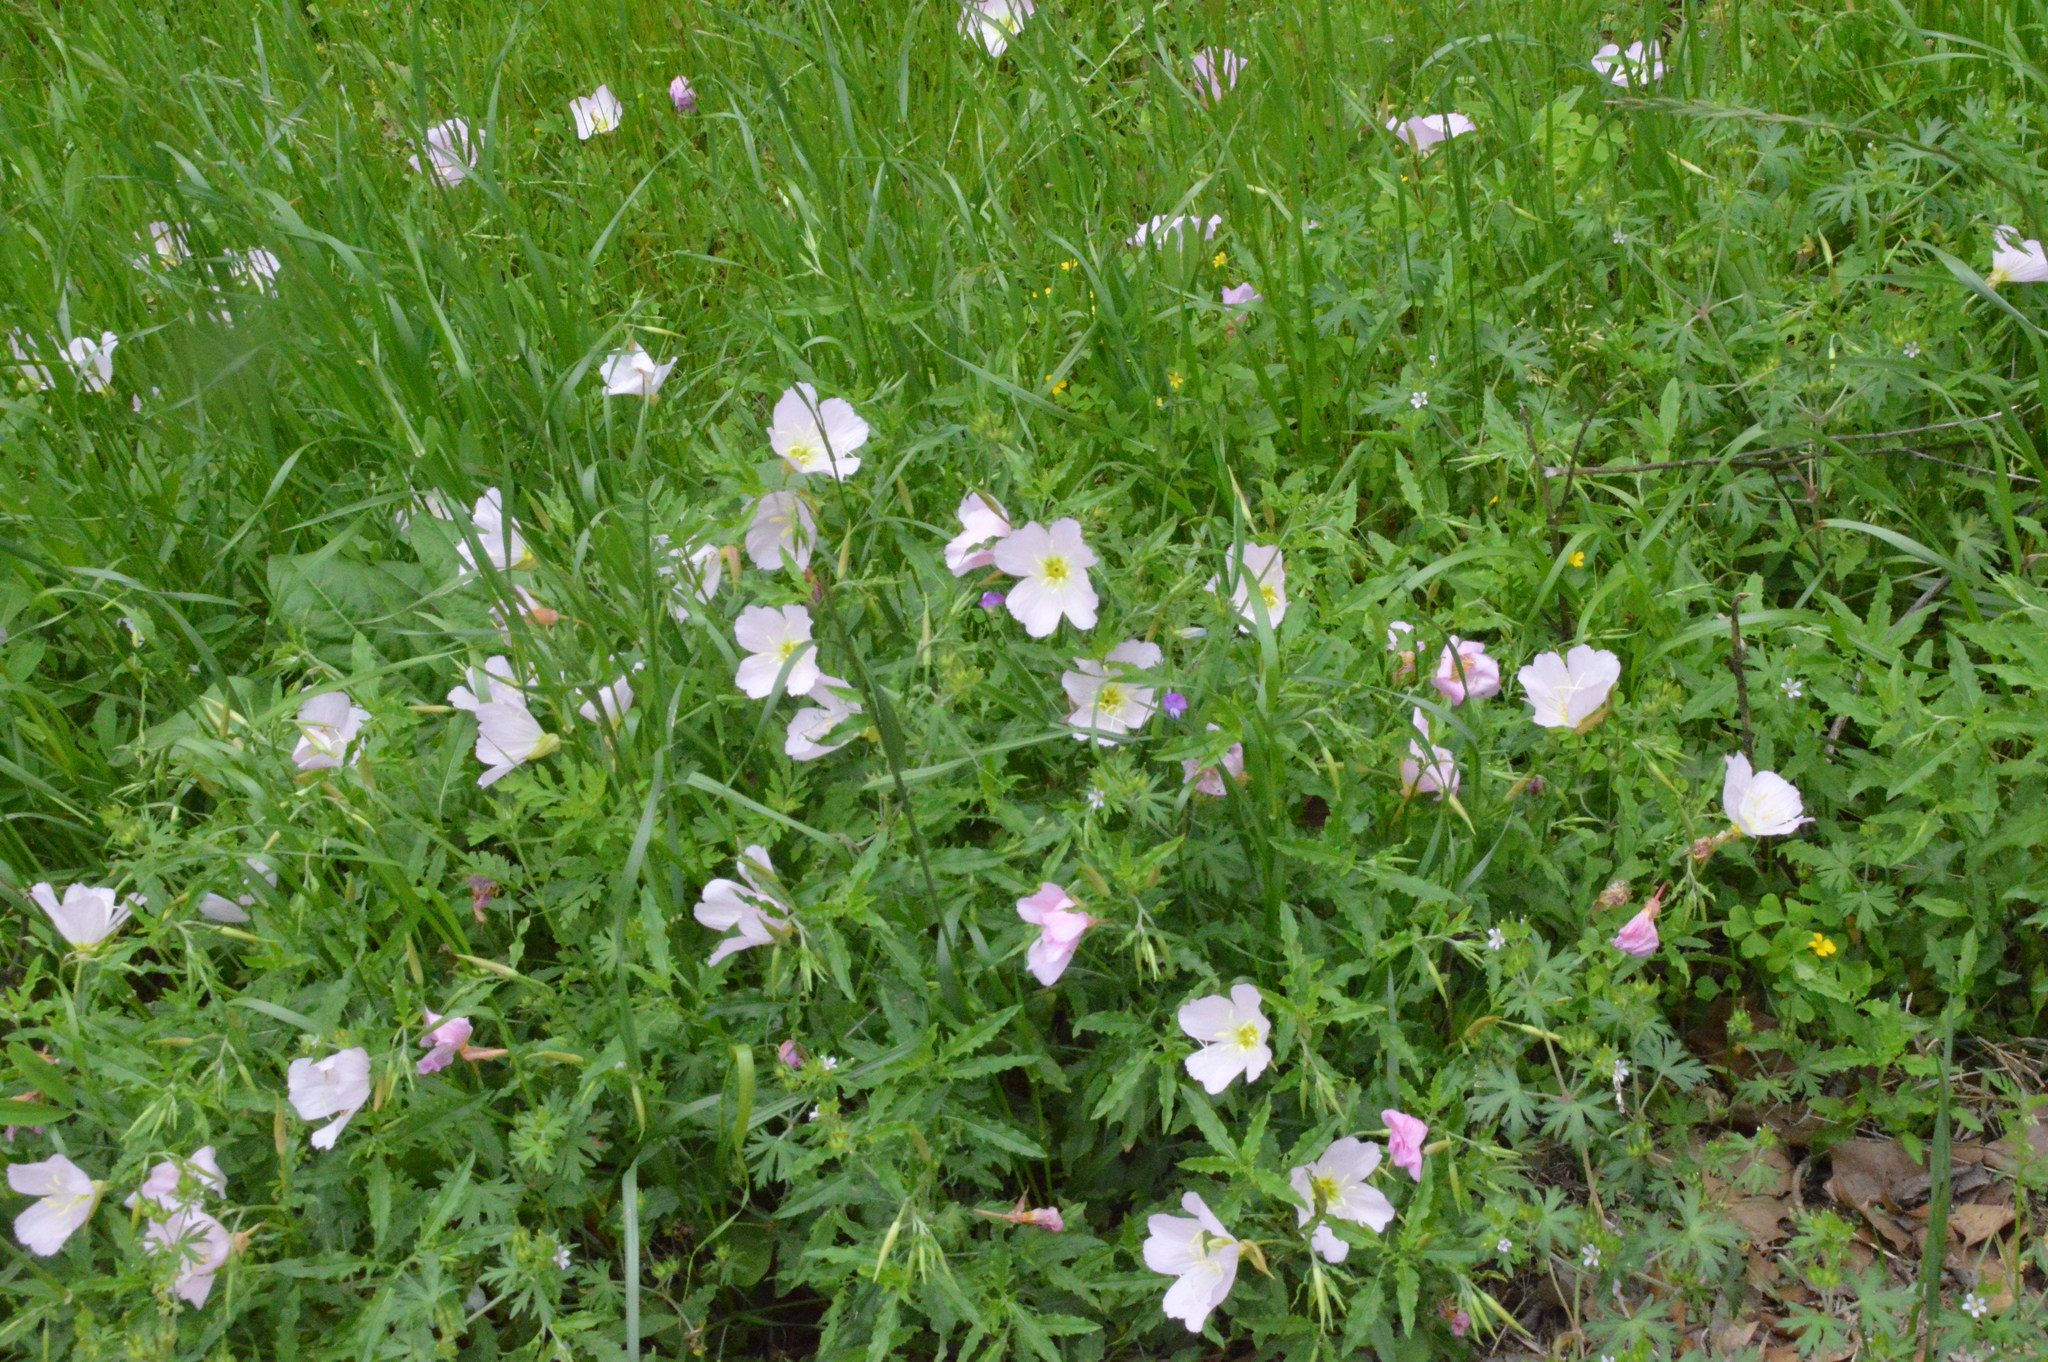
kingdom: Plantae
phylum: Tracheophyta
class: Magnoliopsida
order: Myrtales
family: Onagraceae
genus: Oenothera
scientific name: Oenothera speciosa
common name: White evening-primrose
